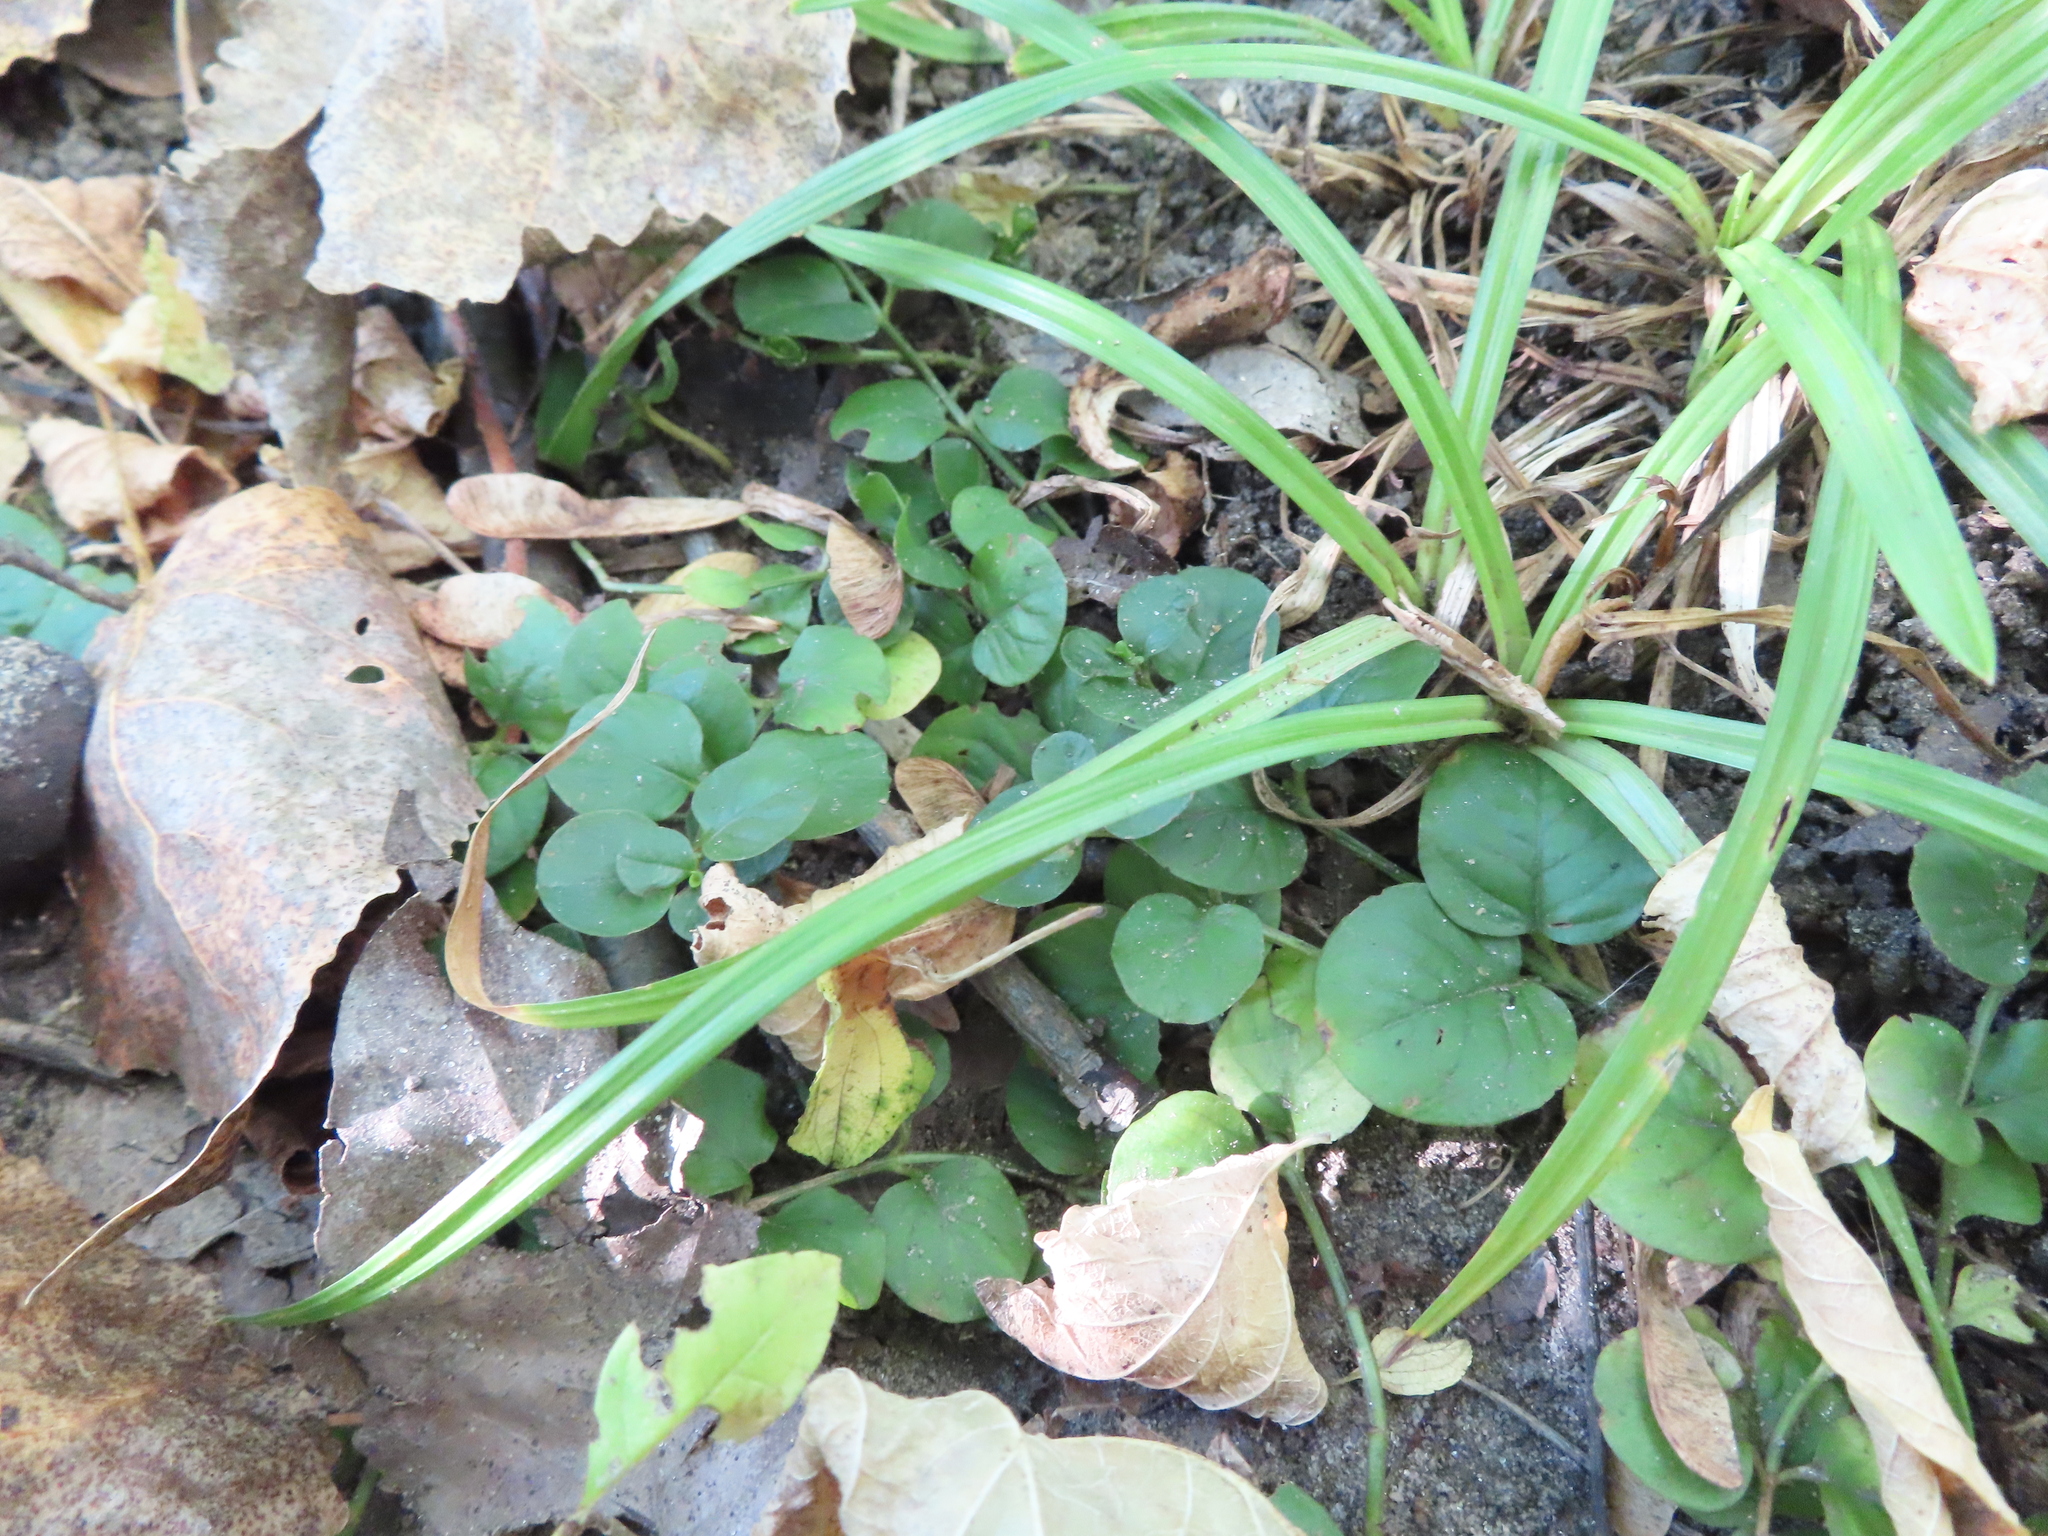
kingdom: Plantae
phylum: Tracheophyta
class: Magnoliopsida
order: Ericales
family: Primulaceae
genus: Lysimachia
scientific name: Lysimachia nummularia
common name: Moneywort
